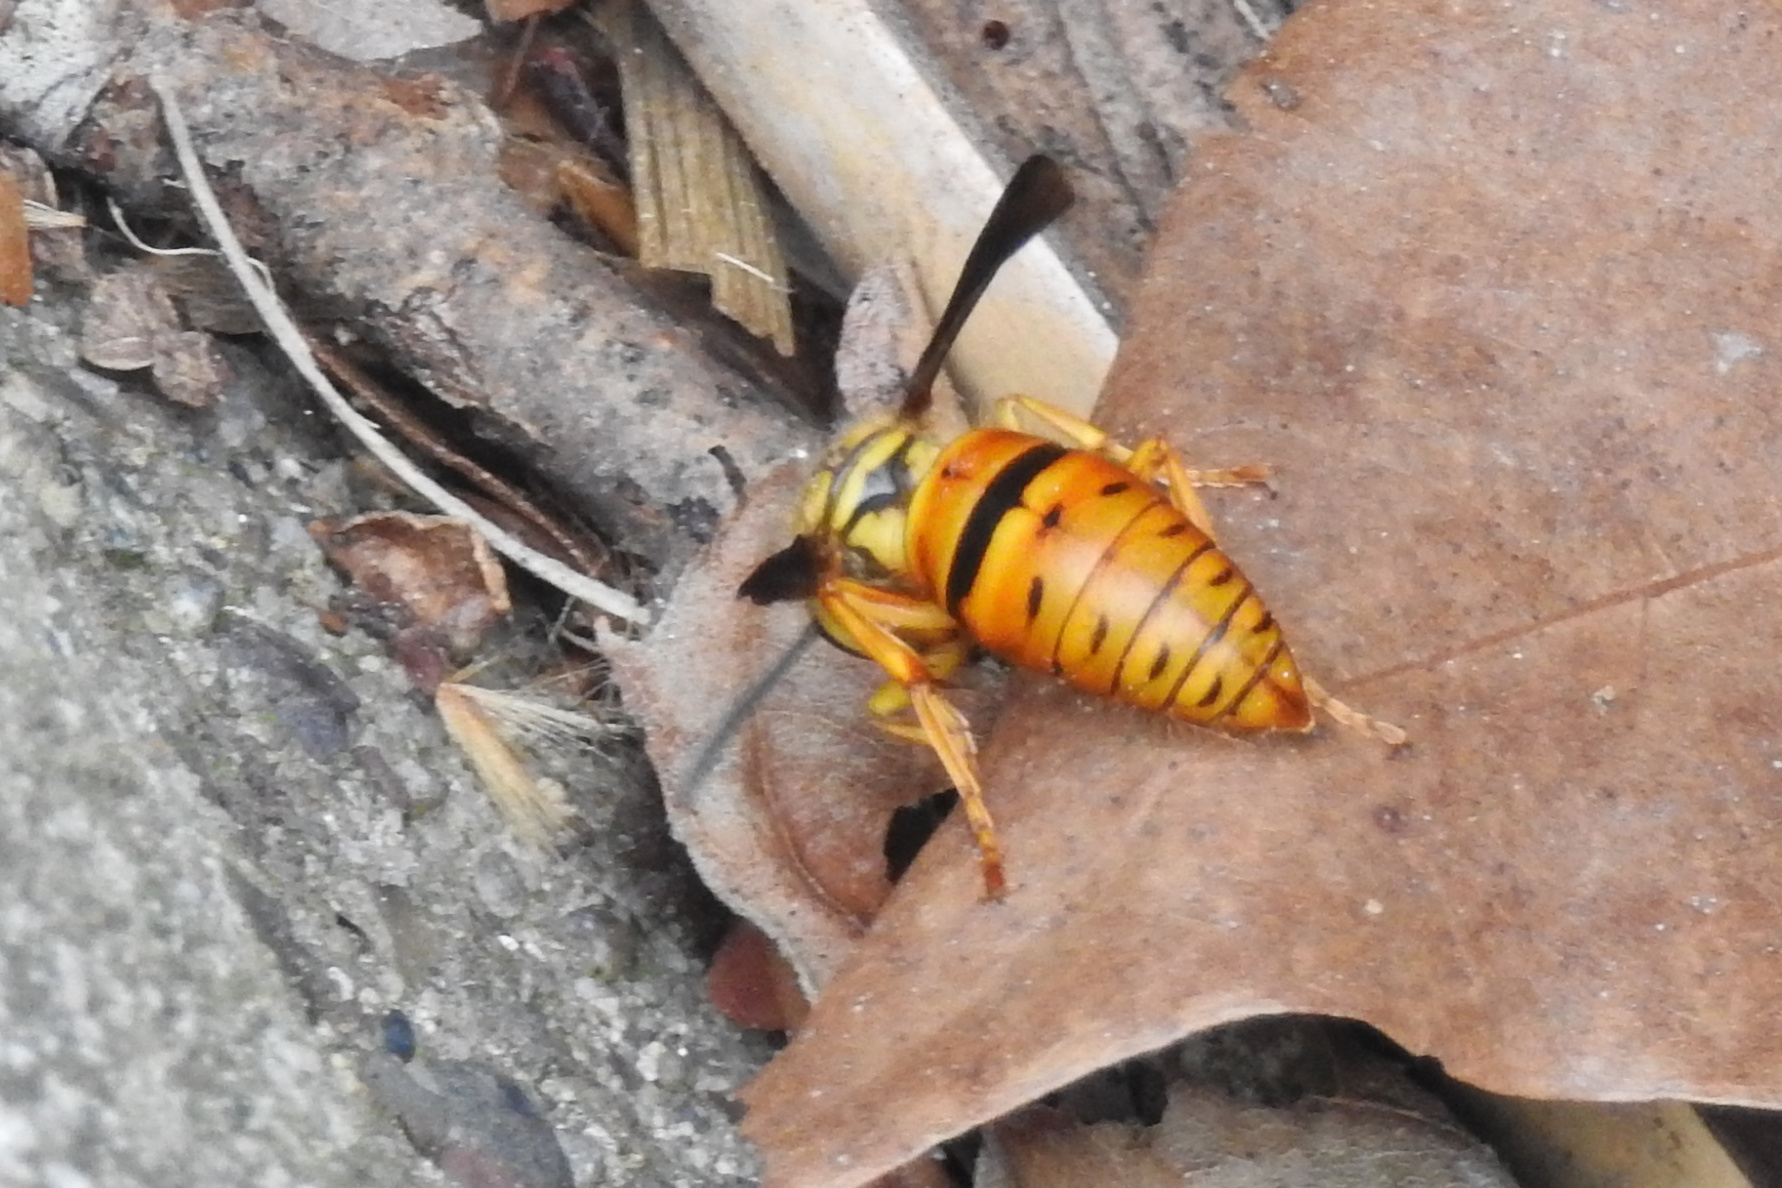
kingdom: Animalia
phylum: Arthropoda
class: Insecta
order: Hymenoptera
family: Vespidae
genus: Vespula
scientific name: Vespula squamosa
